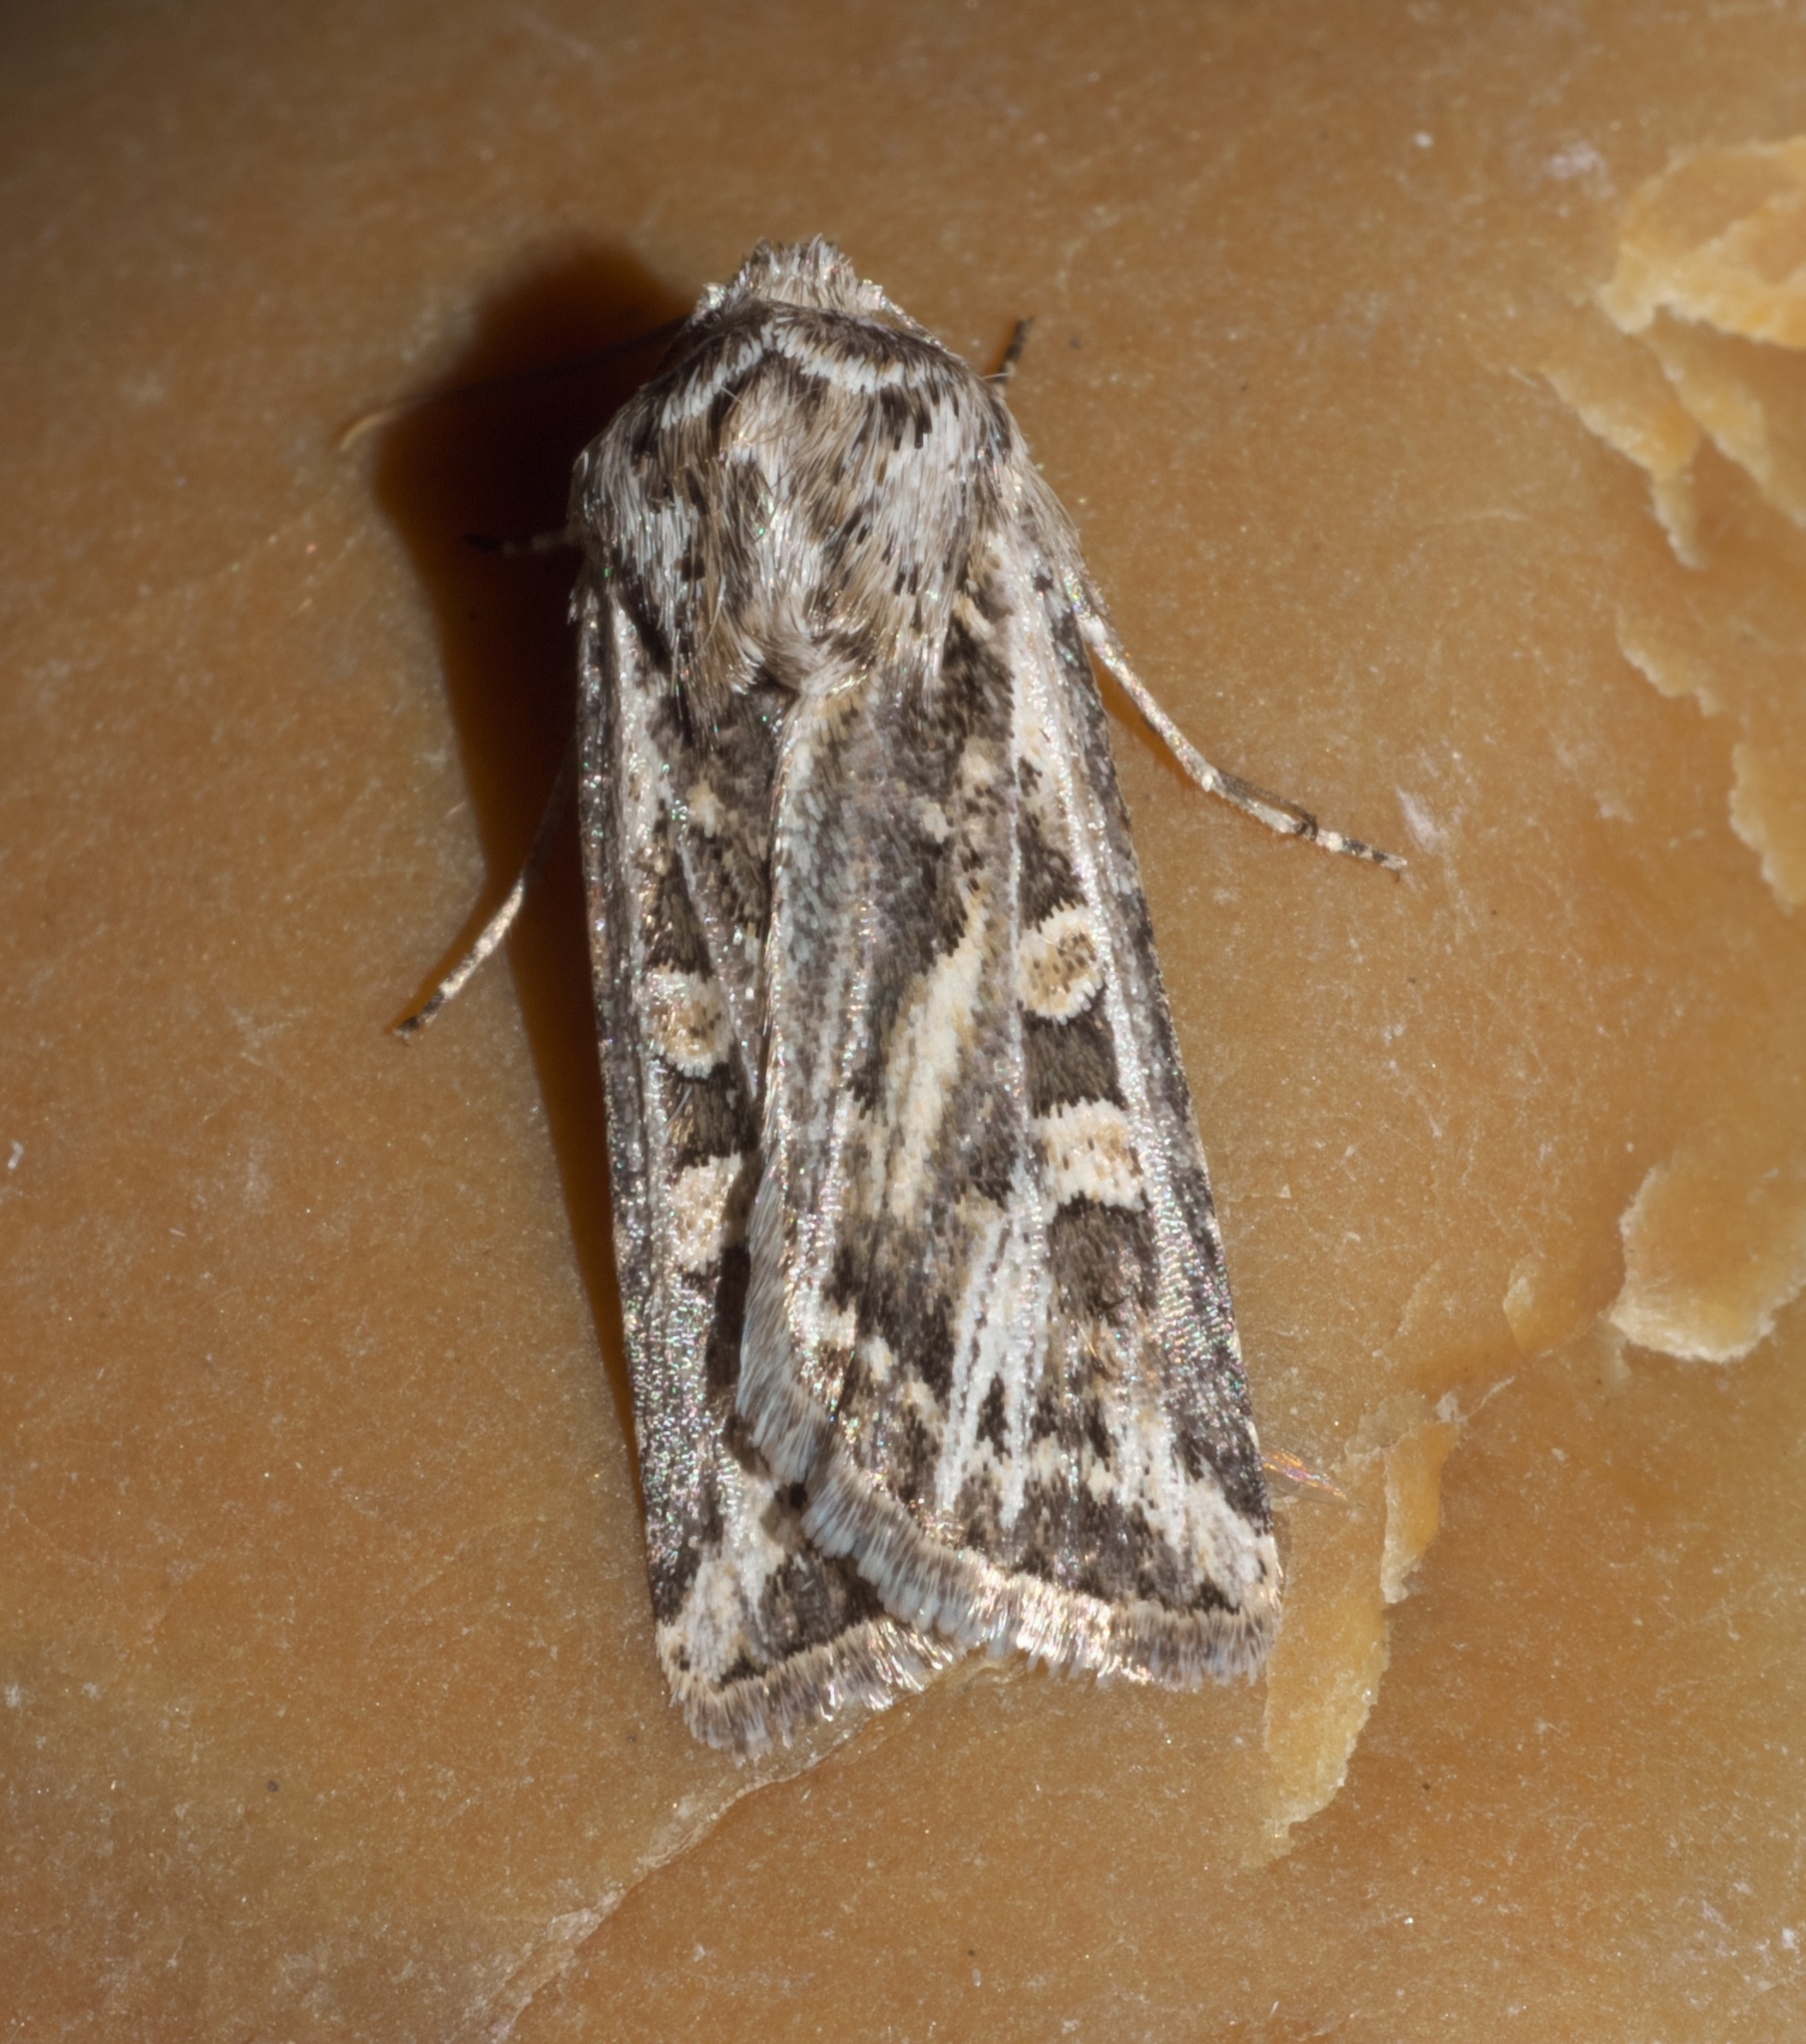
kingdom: Animalia
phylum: Arthropoda
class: Insecta
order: Lepidoptera
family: Noctuidae
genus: Euxoa
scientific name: Euxoa auxiliaris
